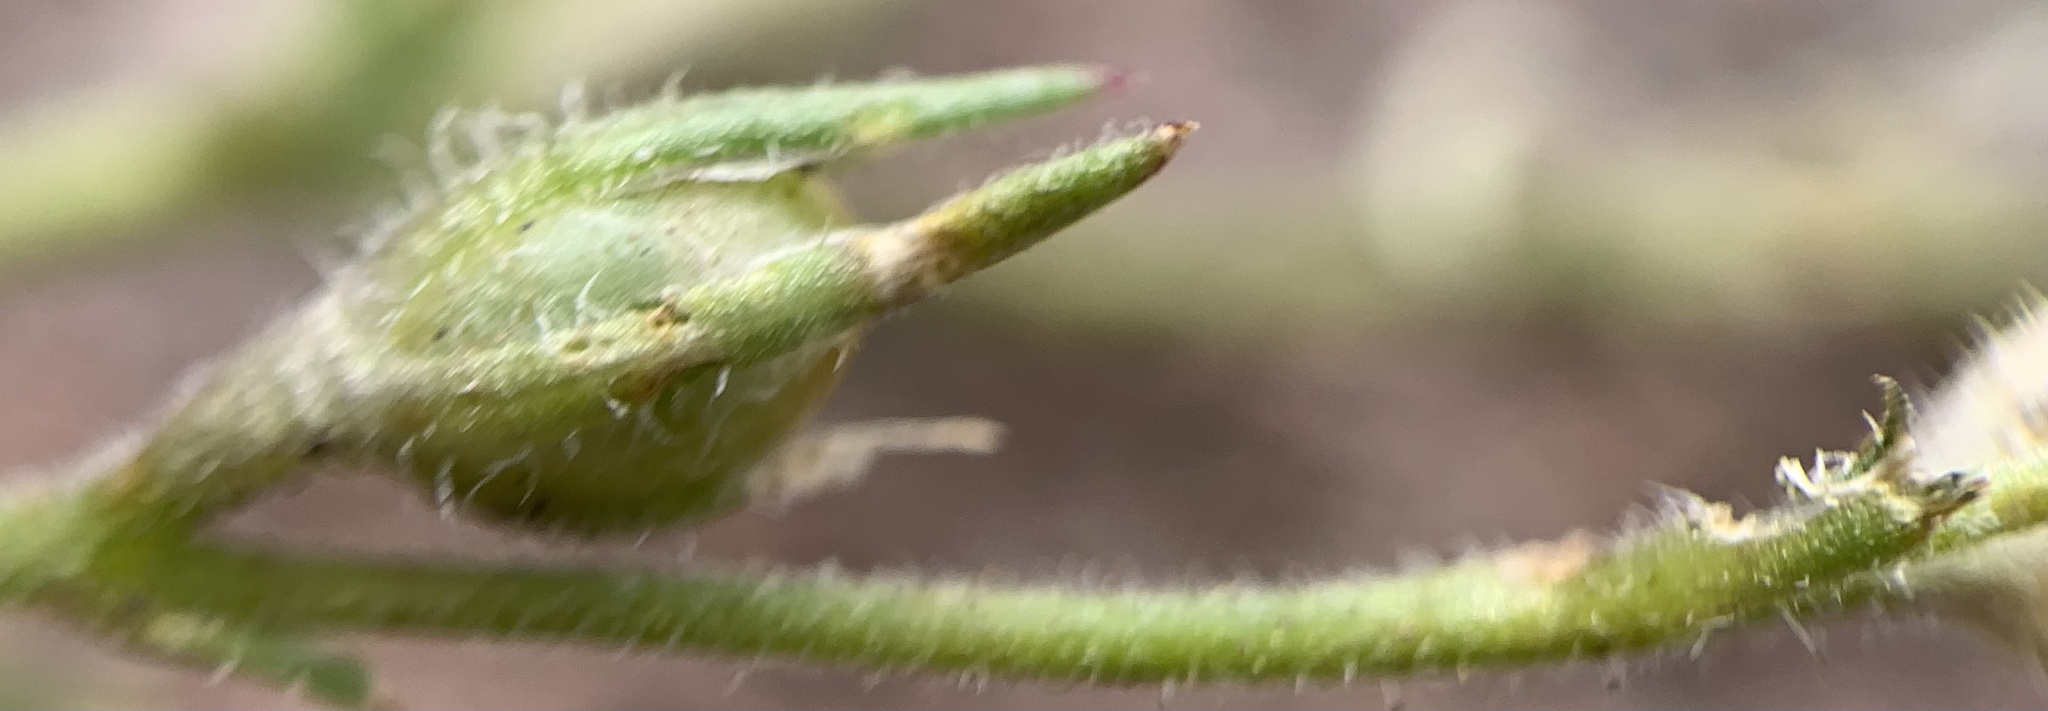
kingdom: Plantae
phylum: Tracheophyta
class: Magnoliopsida
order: Ericales
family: Polemoniaceae
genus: Phlox
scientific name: Phlox gracilis
